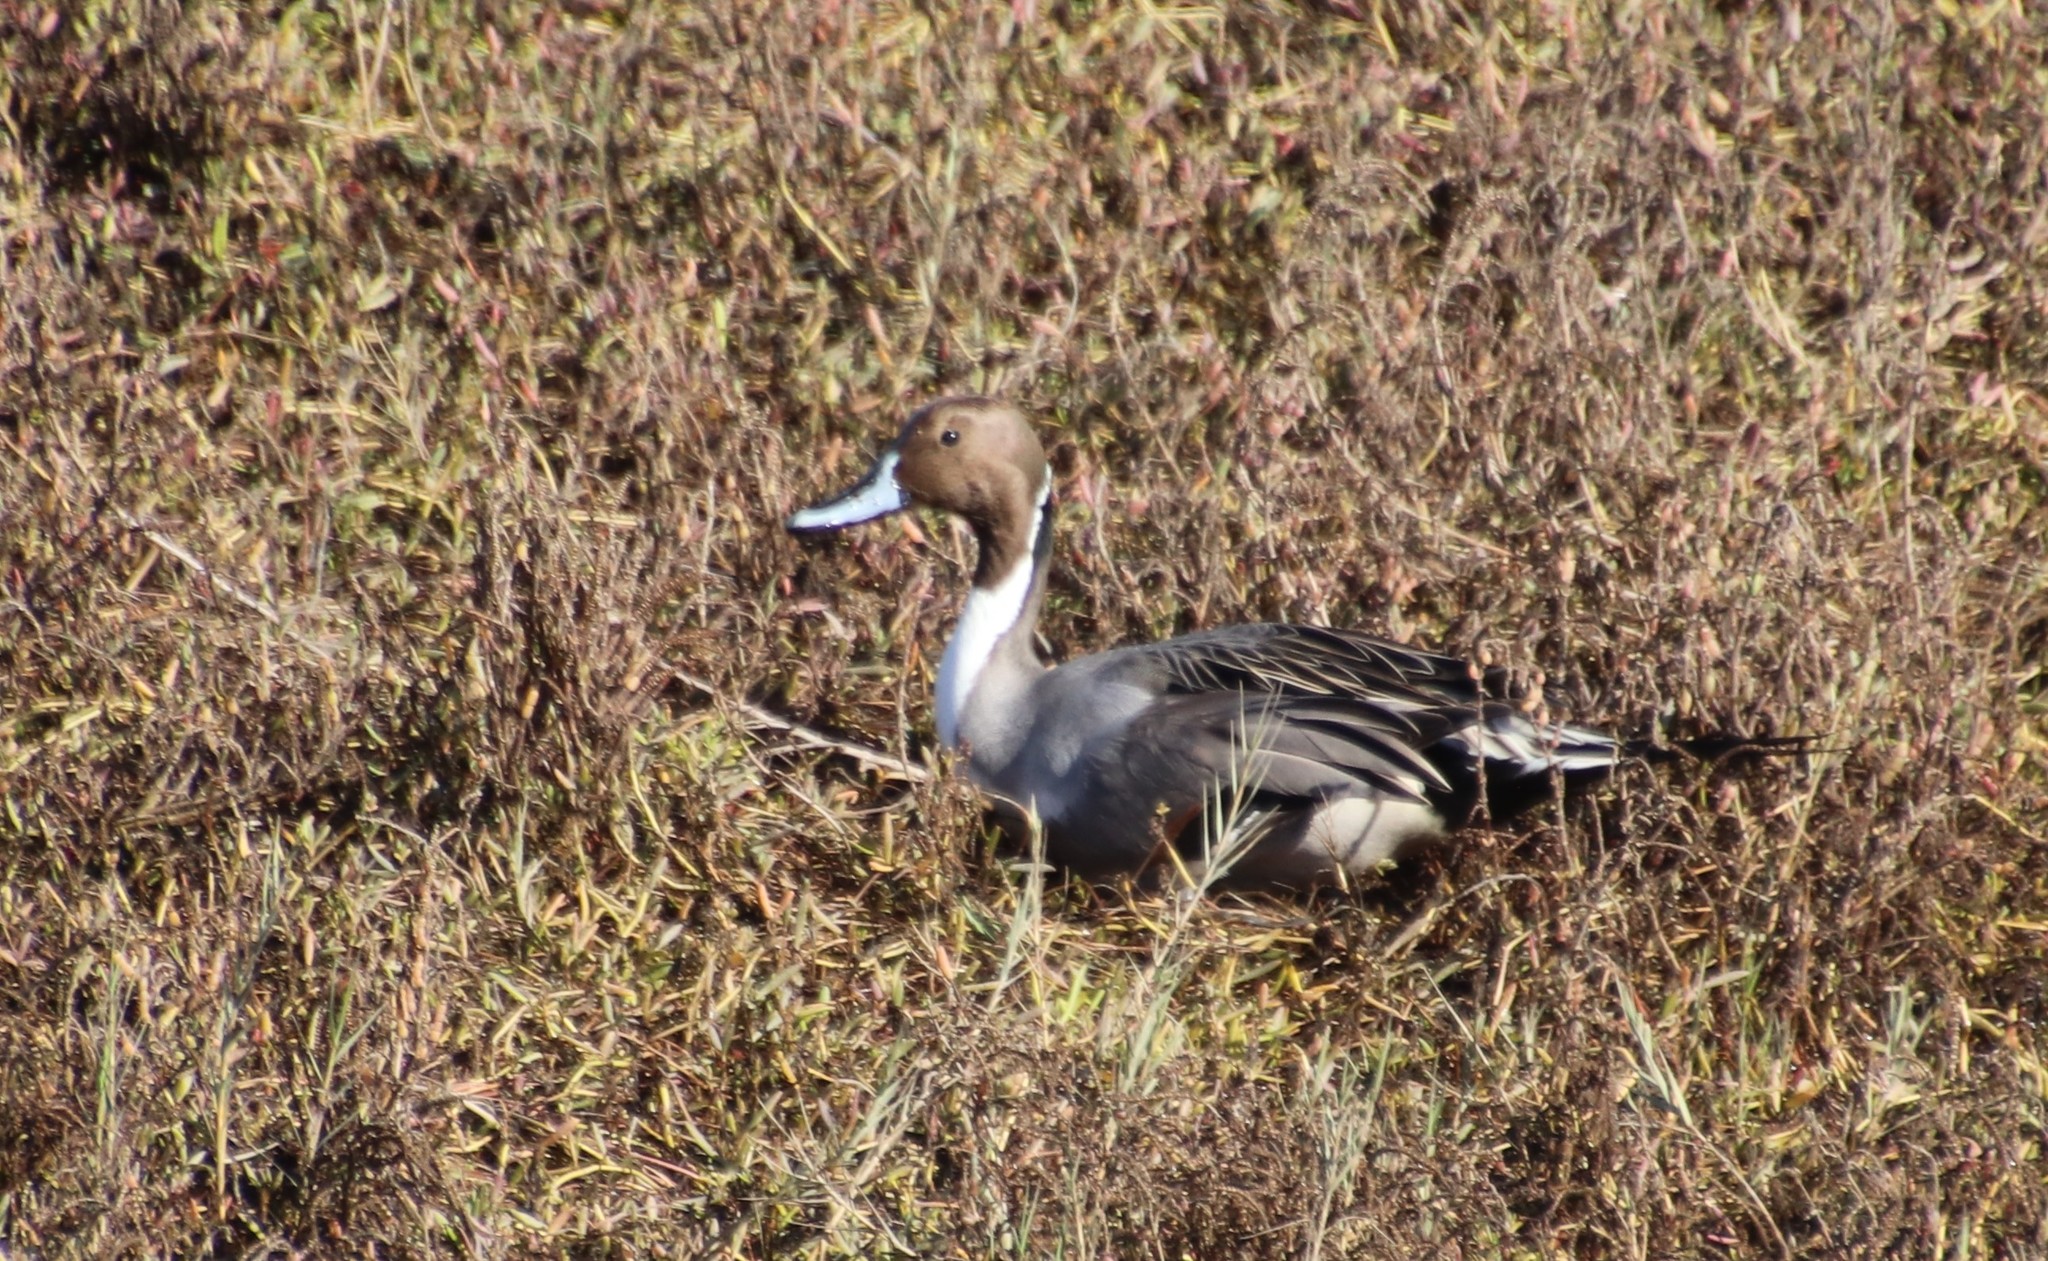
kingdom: Animalia
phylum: Chordata
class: Aves
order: Anseriformes
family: Anatidae
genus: Anas
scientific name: Anas acuta
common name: Northern pintail
